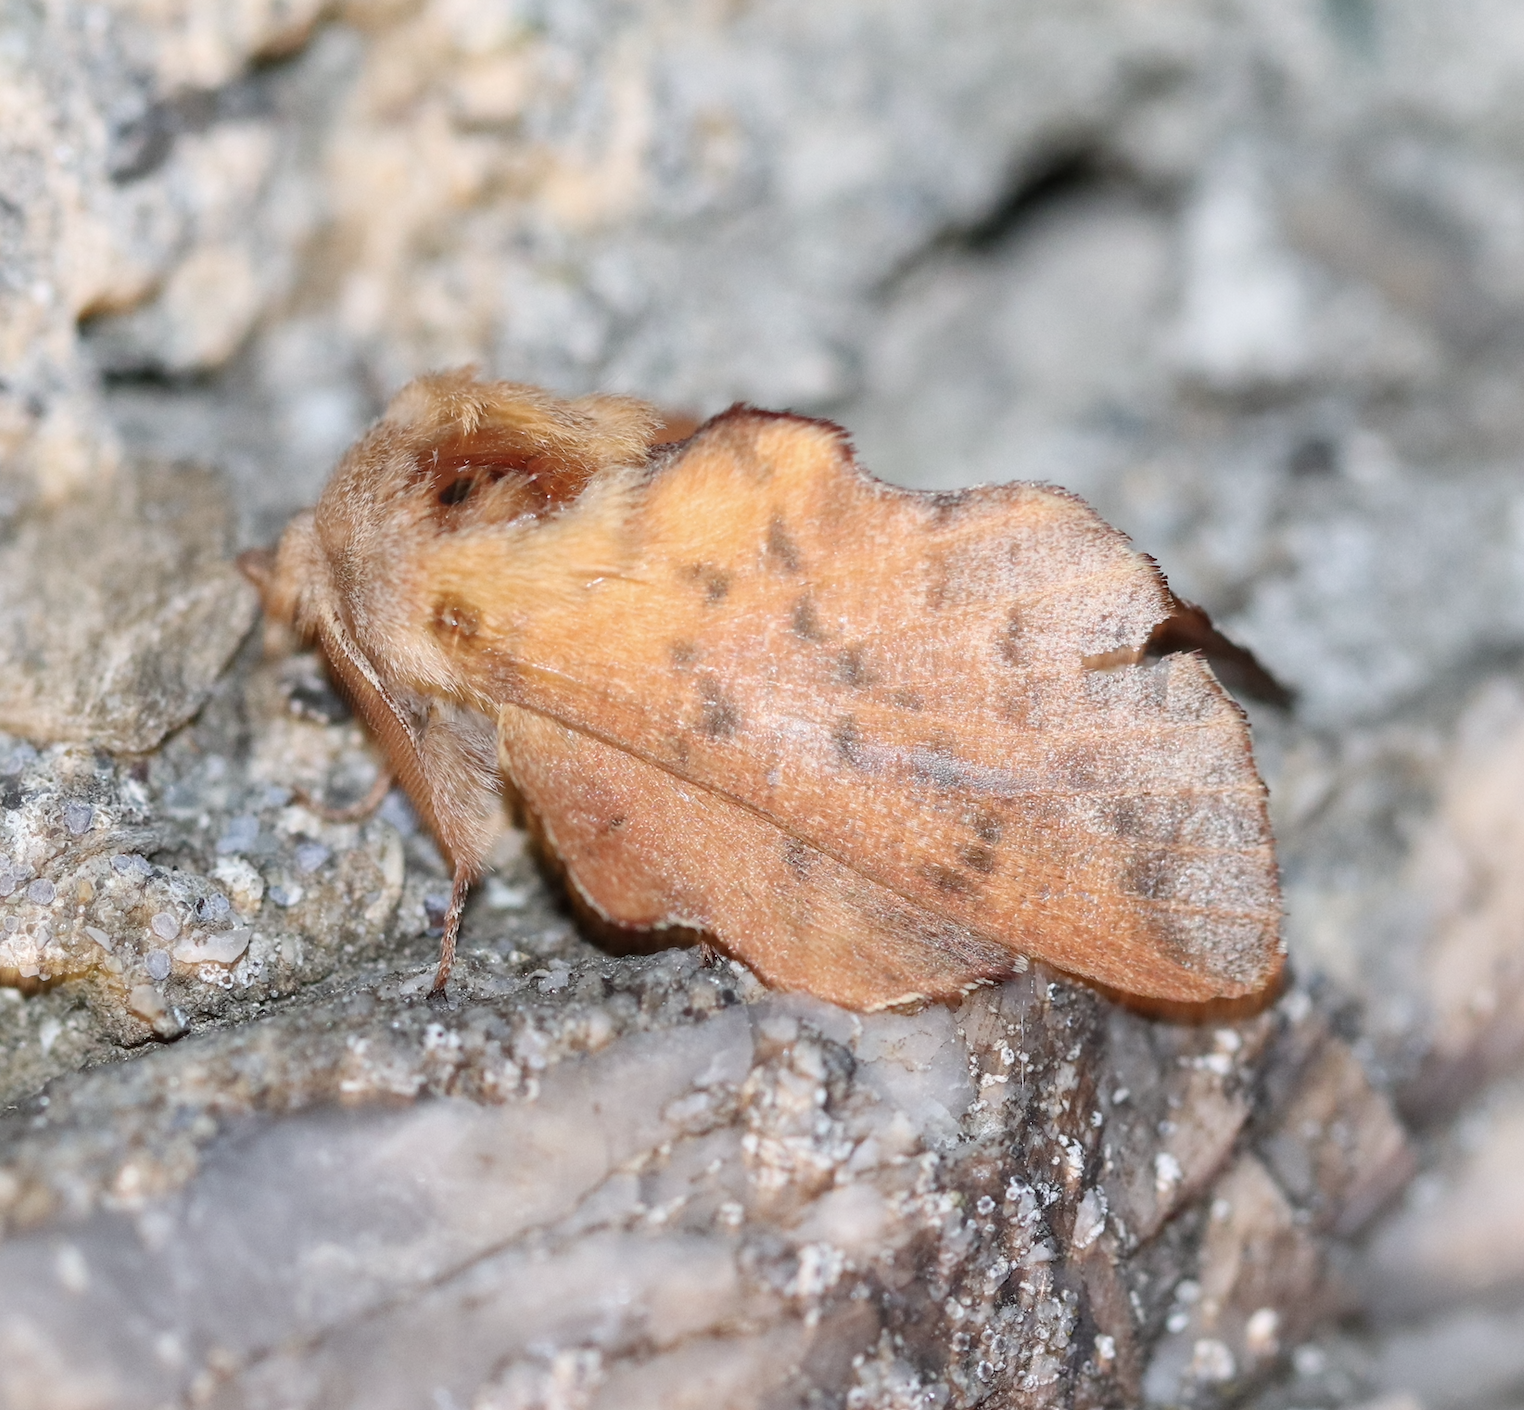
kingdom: Animalia
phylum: Arthropoda
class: Insecta
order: Lepidoptera
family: Lasiocampidae
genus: Phyllodesma
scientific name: Phyllodesma tremulifolia
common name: Aspen lappet
